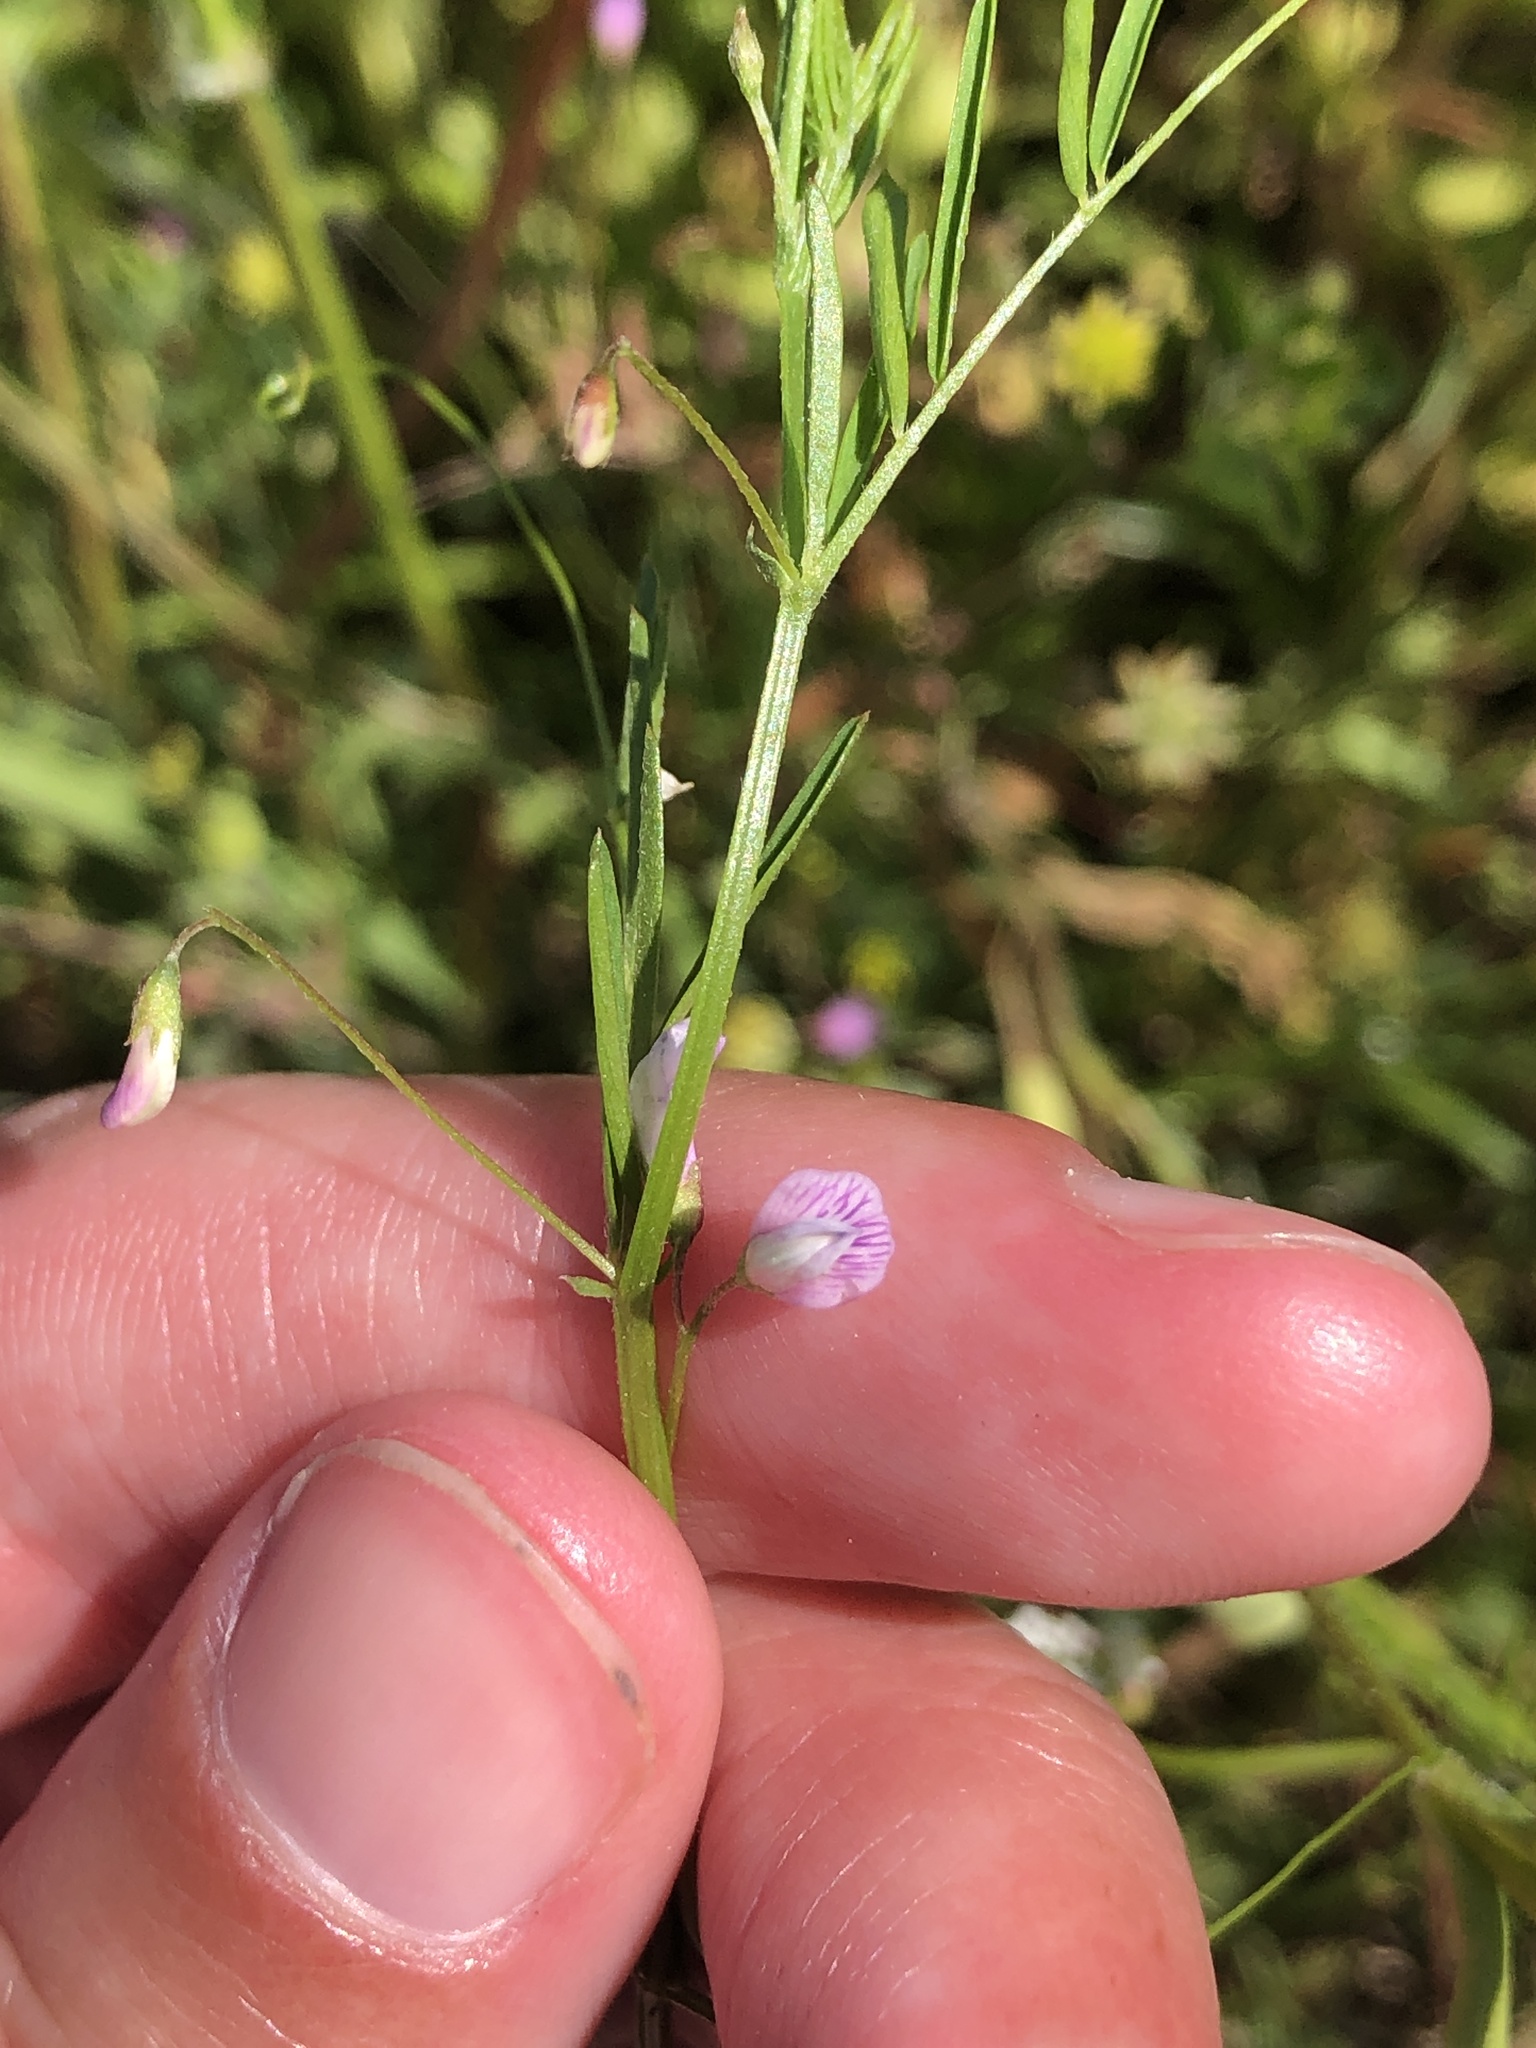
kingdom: Plantae
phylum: Tracheophyta
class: Magnoliopsida
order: Fabales
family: Fabaceae
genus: Vicia
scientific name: Vicia tetrasperma
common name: Smooth tare
